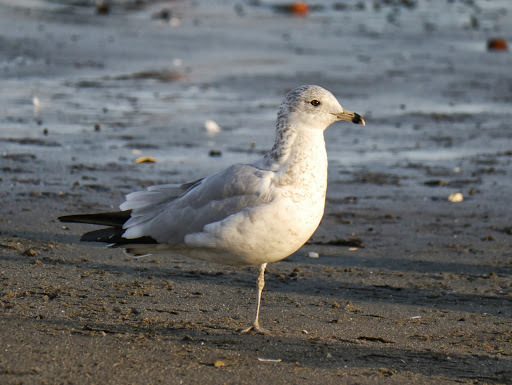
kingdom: Animalia
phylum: Chordata
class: Aves
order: Charadriiformes
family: Laridae
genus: Larus
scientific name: Larus delawarensis
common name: Ring-billed gull
